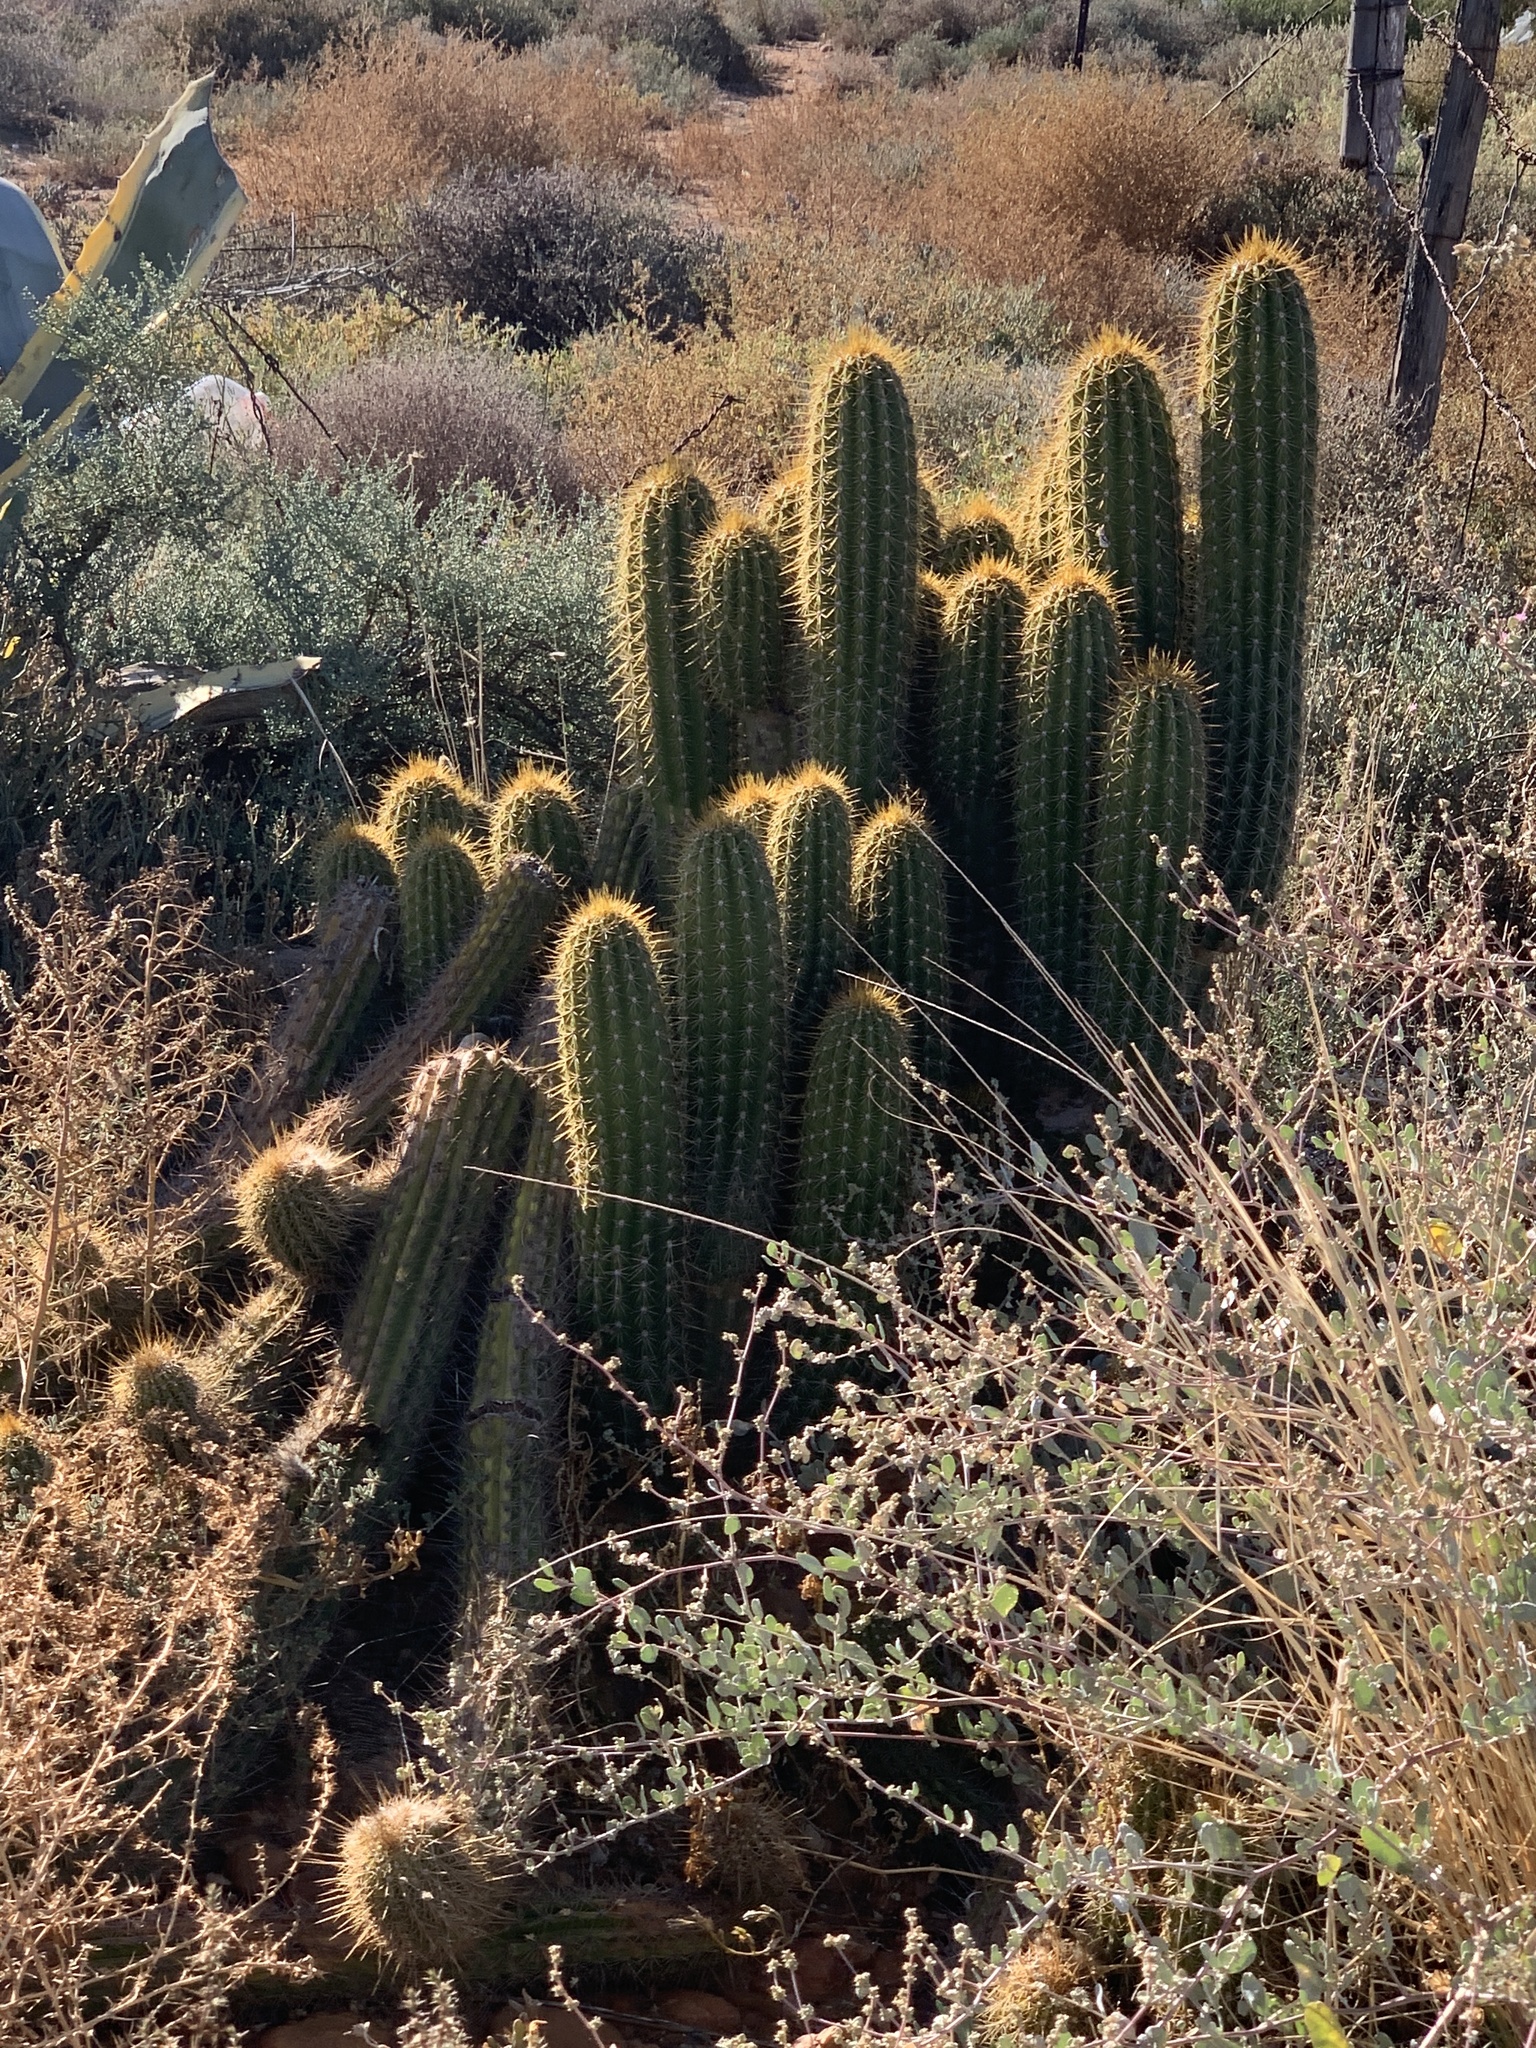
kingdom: Plantae
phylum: Tracheophyta
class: Magnoliopsida
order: Caryophyllales
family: Cactaceae
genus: Soehrensia
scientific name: Soehrensia spachiana
